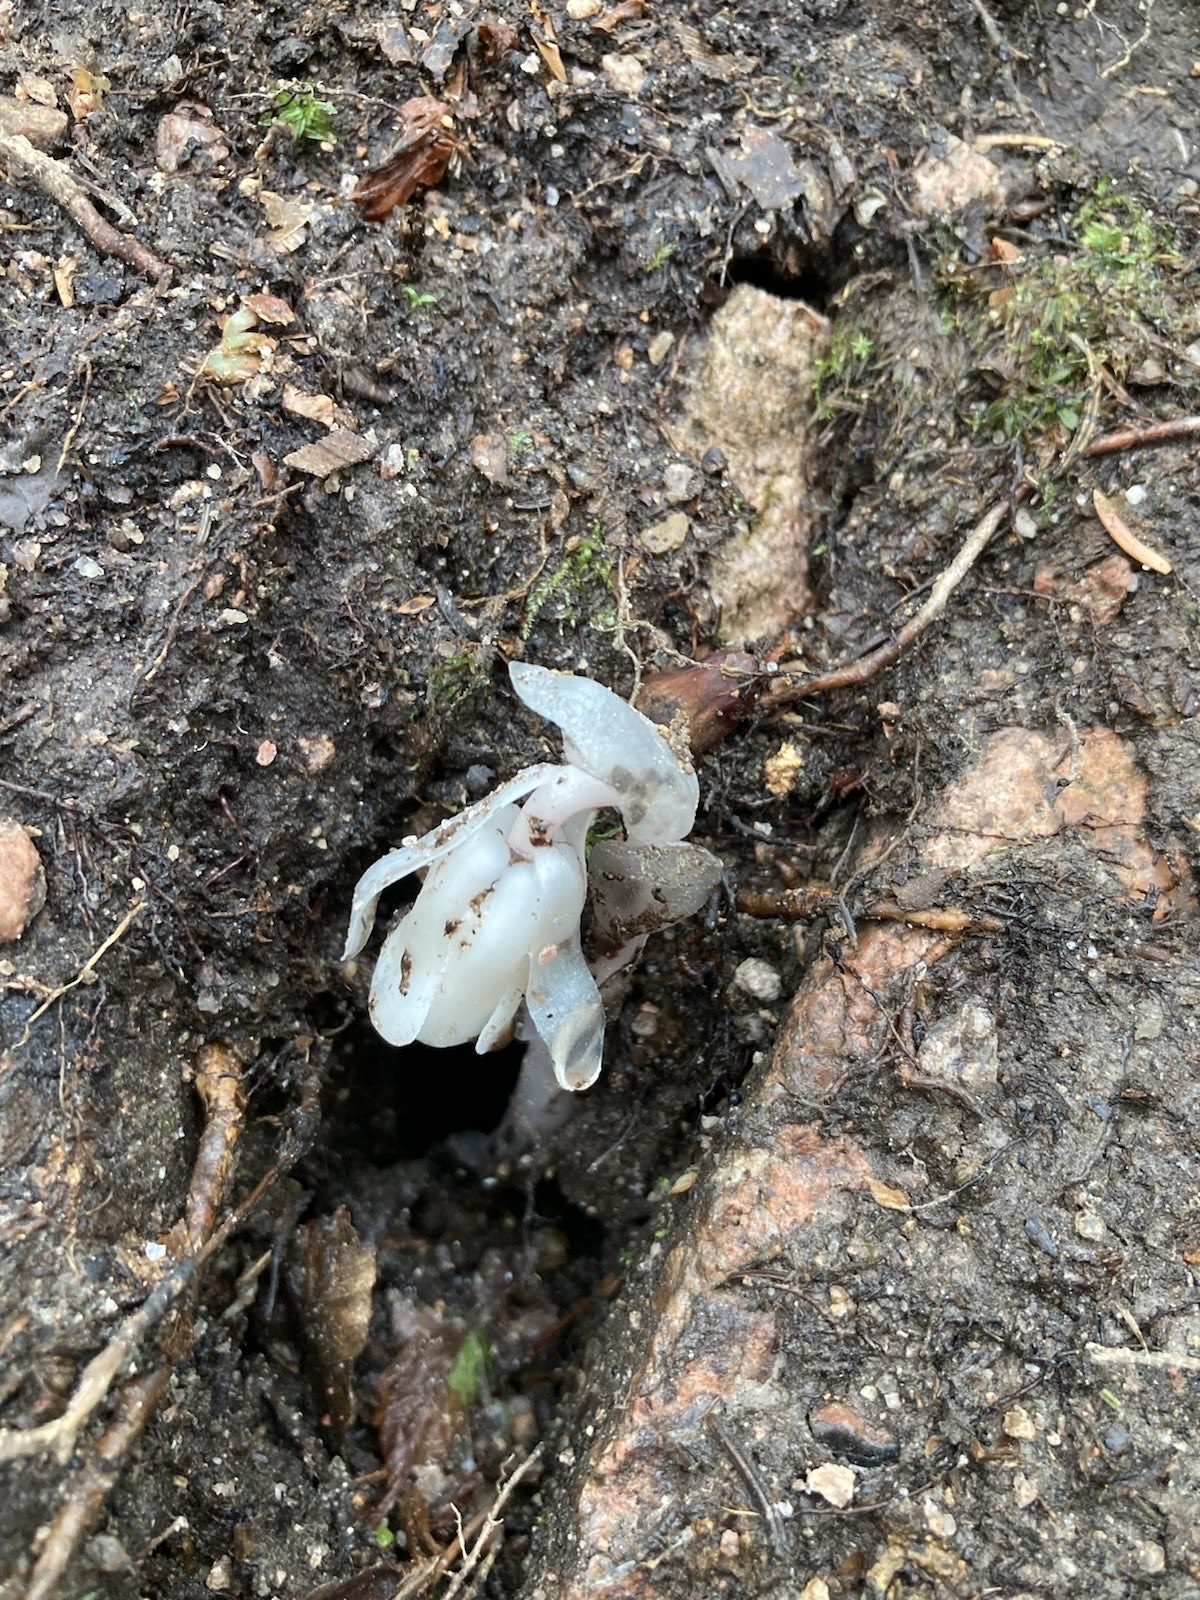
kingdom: Plantae
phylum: Tracheophyta
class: Magnoliopsida
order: Ericales
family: Ericaceae
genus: Monotropa
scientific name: Monotropa uniflora
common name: Convulsion root
